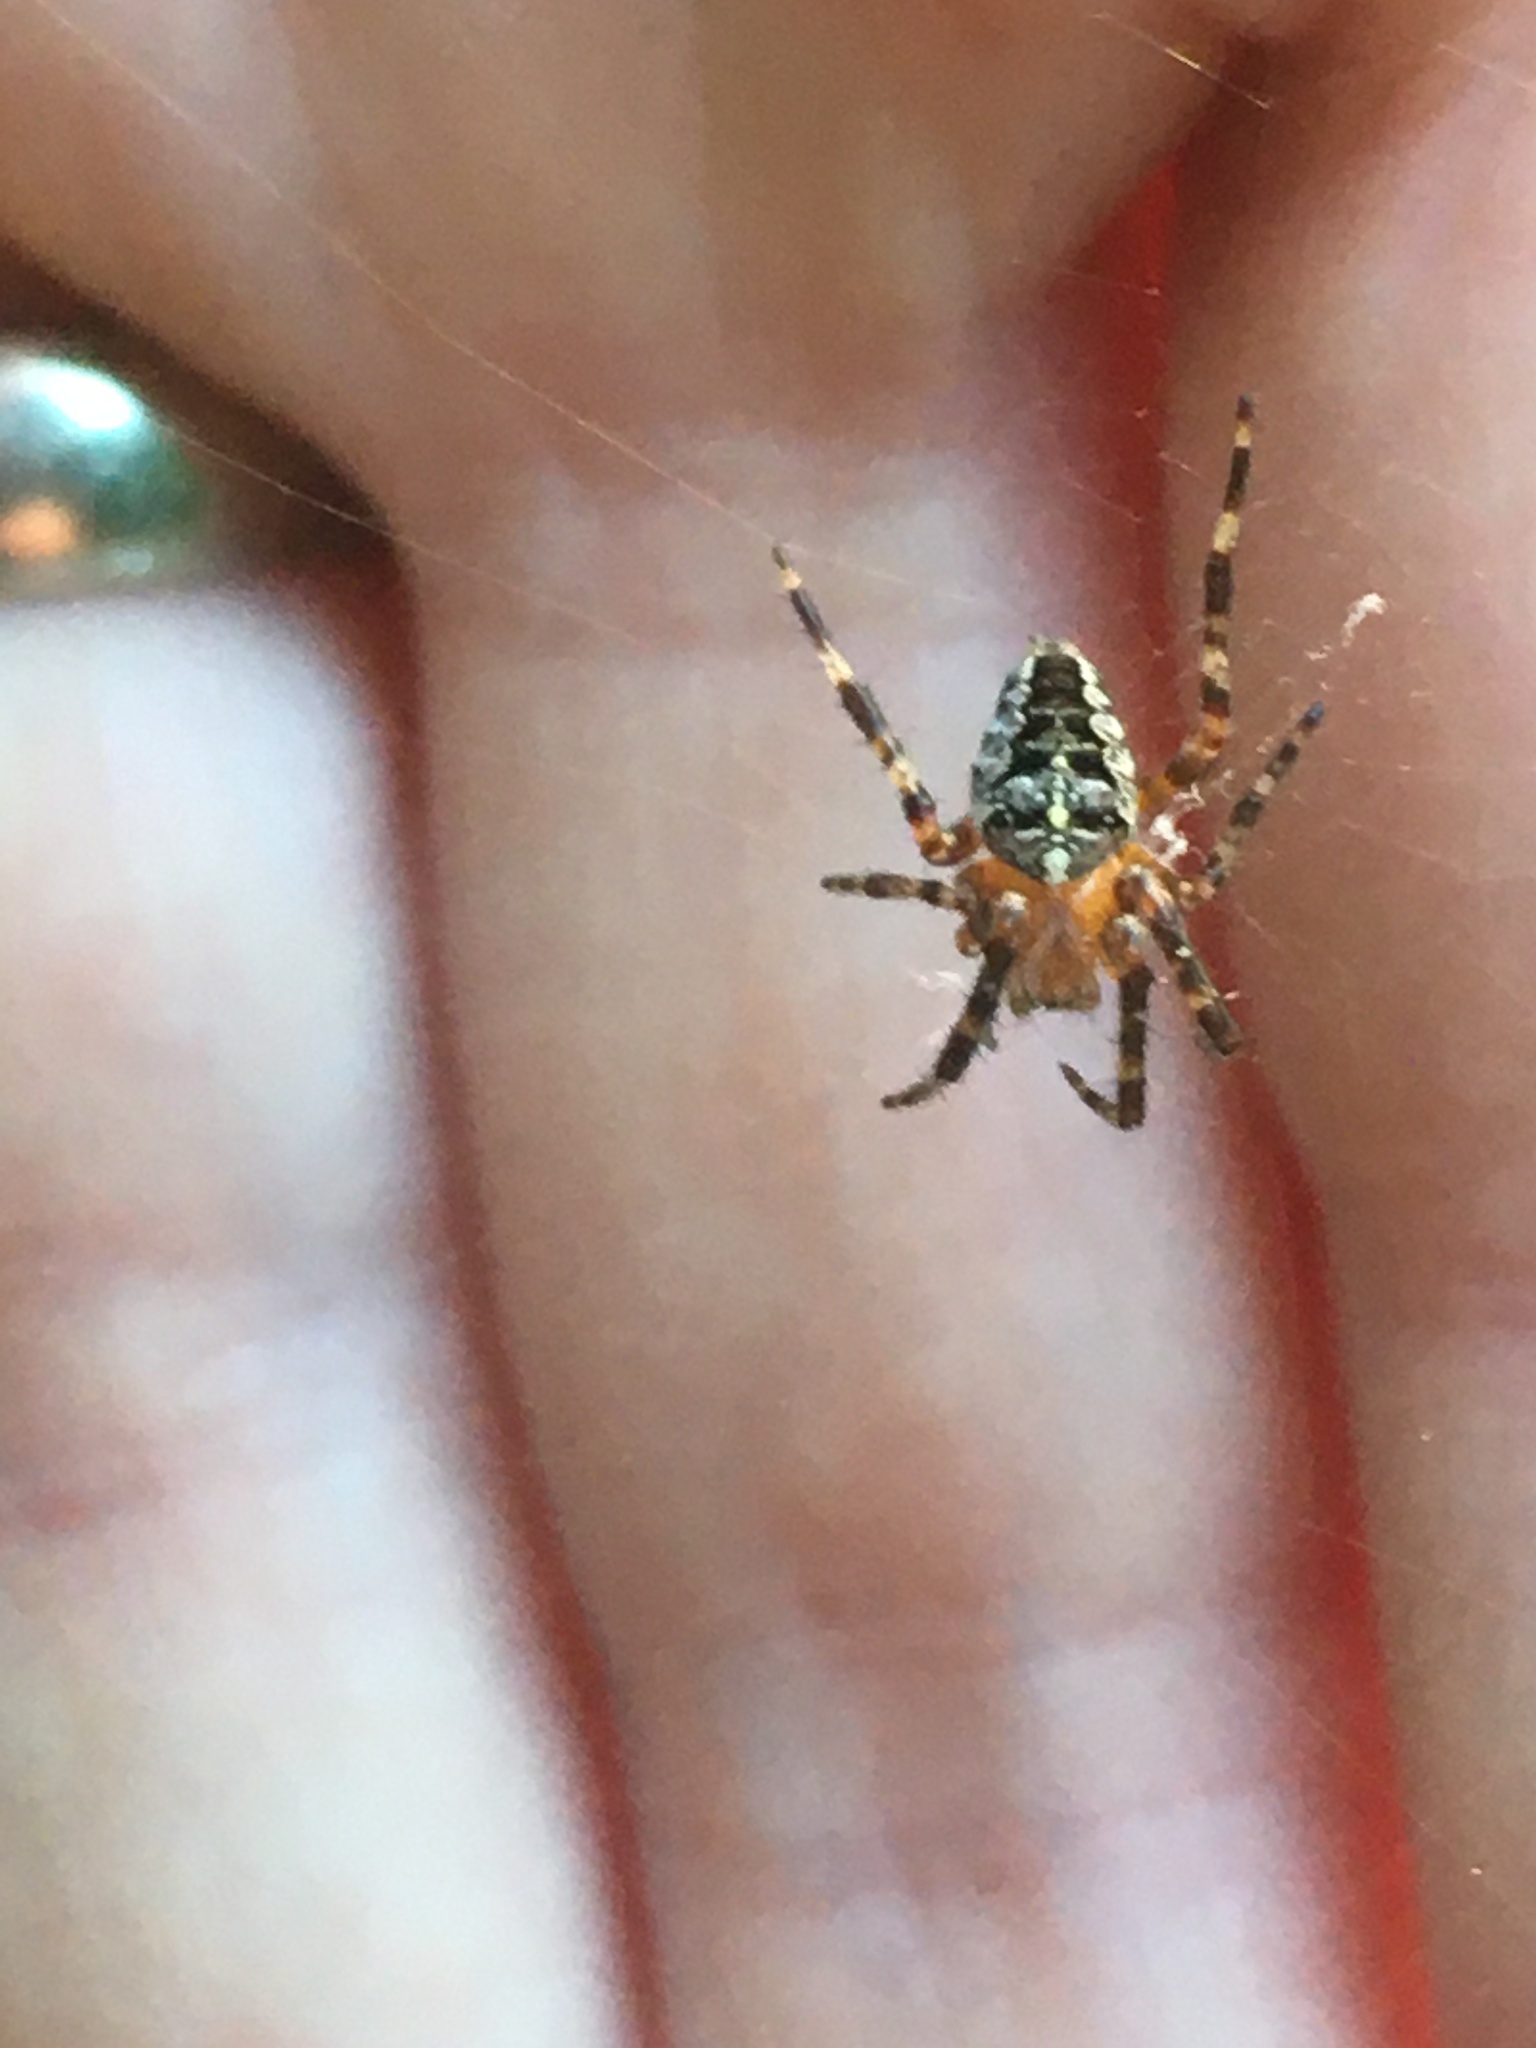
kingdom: Animalia
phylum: Arthropoda
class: Arachnida
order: Araneae
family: Araneidae
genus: Araneus
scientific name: Araneus diadematus
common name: Cross orbweaver
